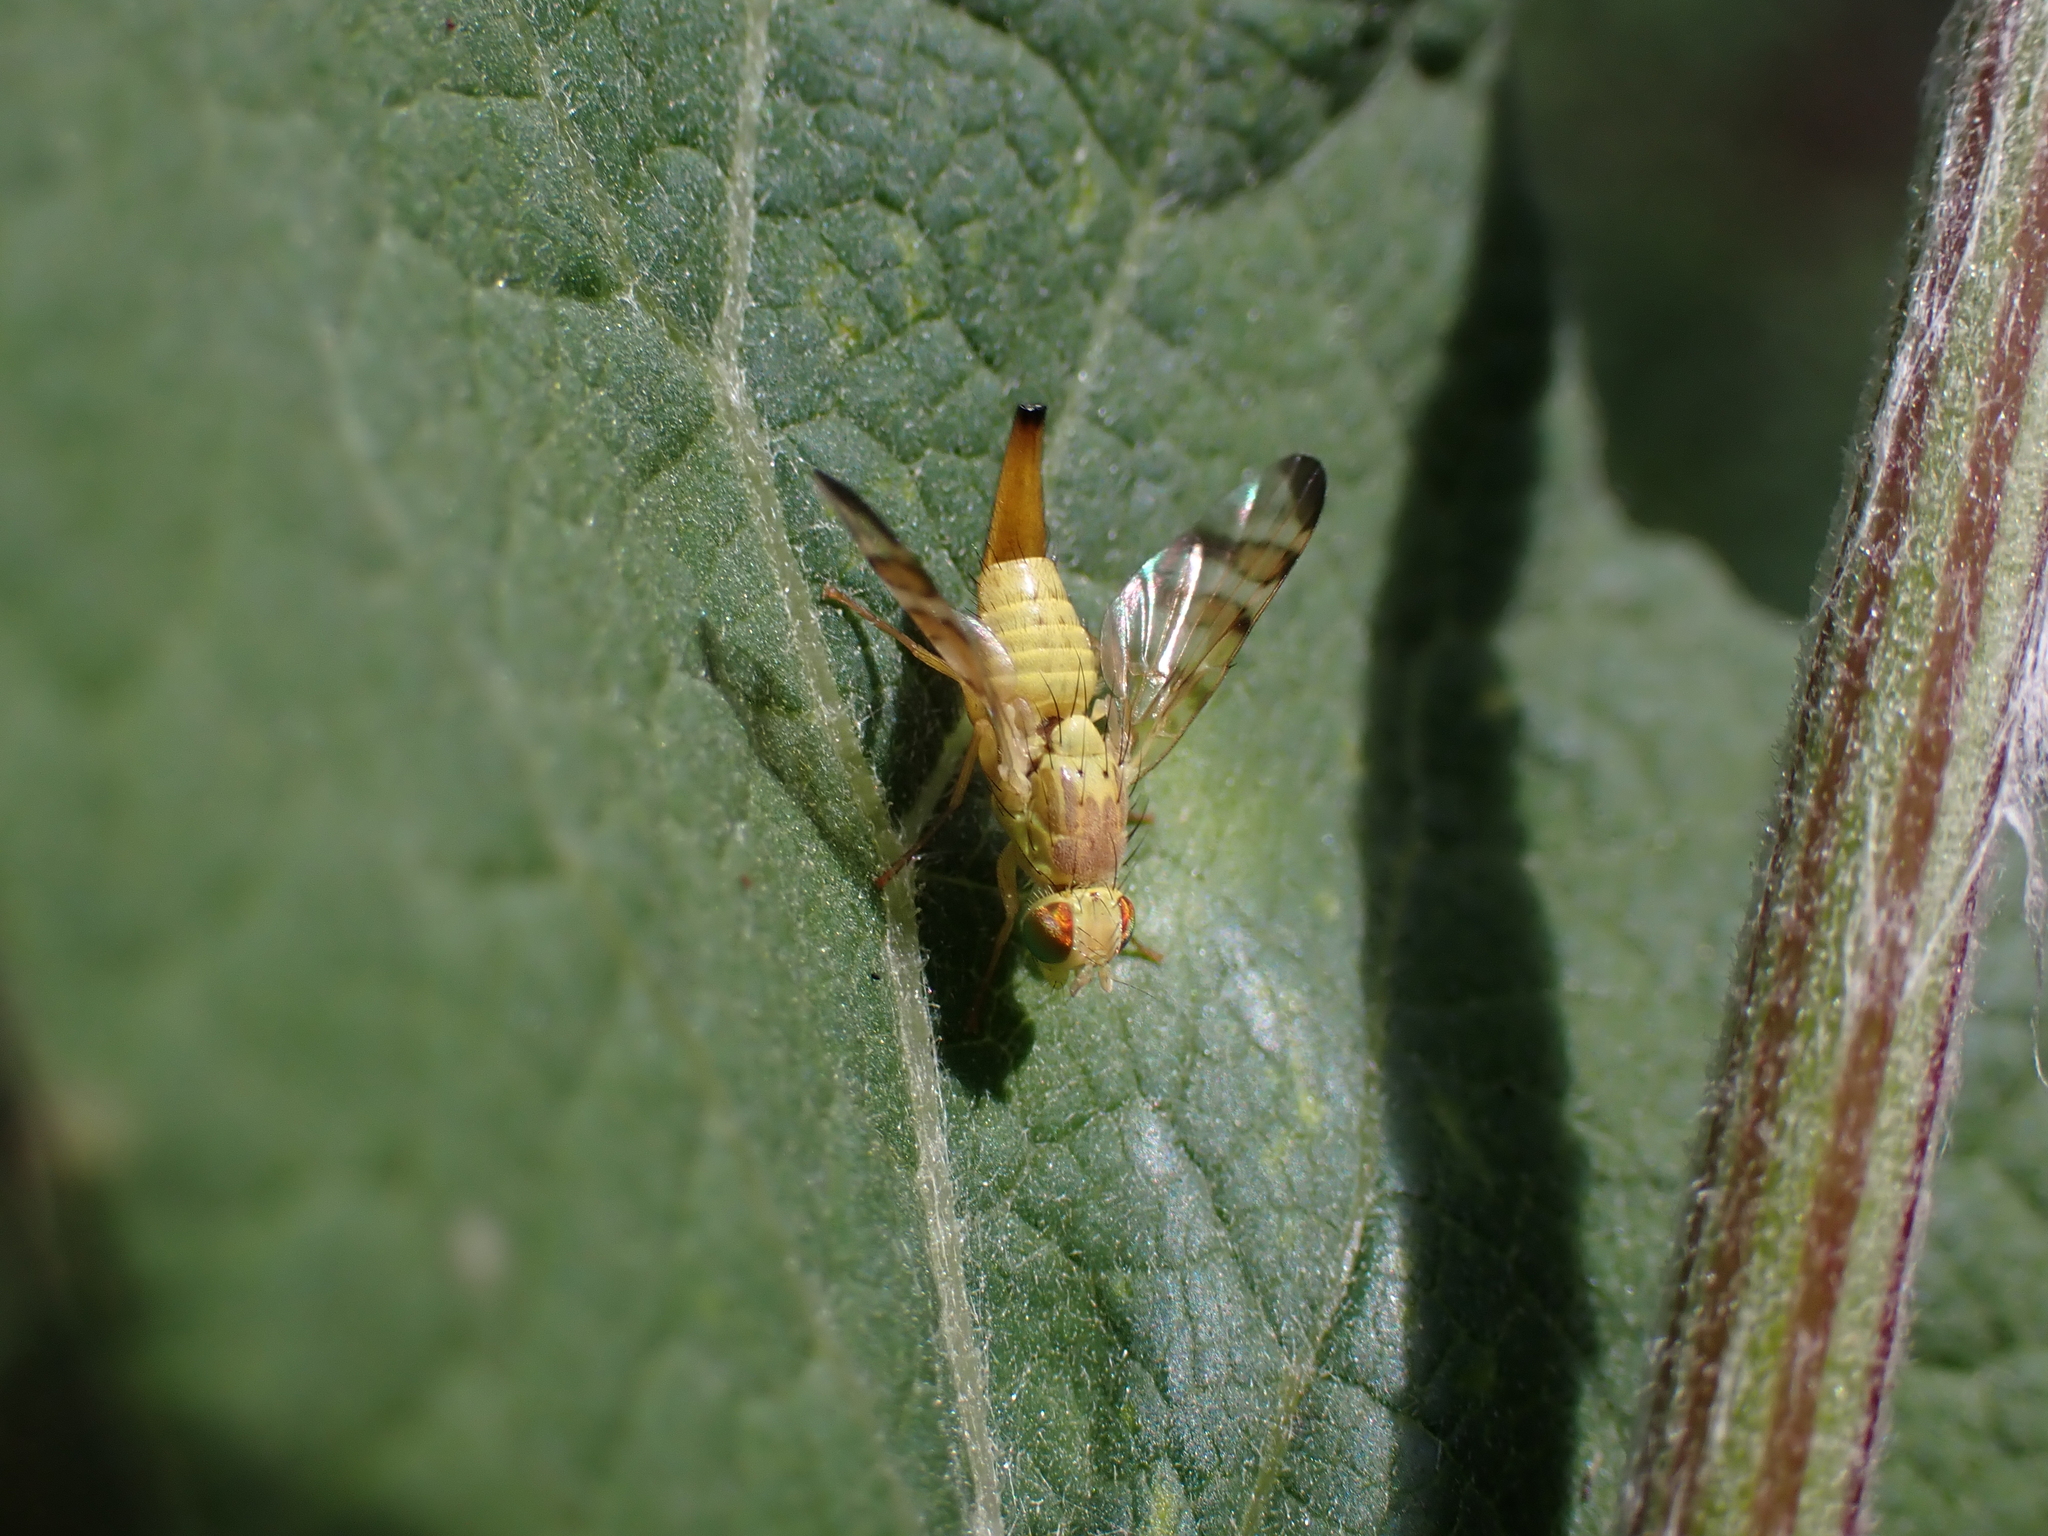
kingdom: Animalia
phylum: Arthropoda
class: Insecta
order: Diptera
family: Tephritidae
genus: Terellia
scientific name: Terellia tussilaginis
